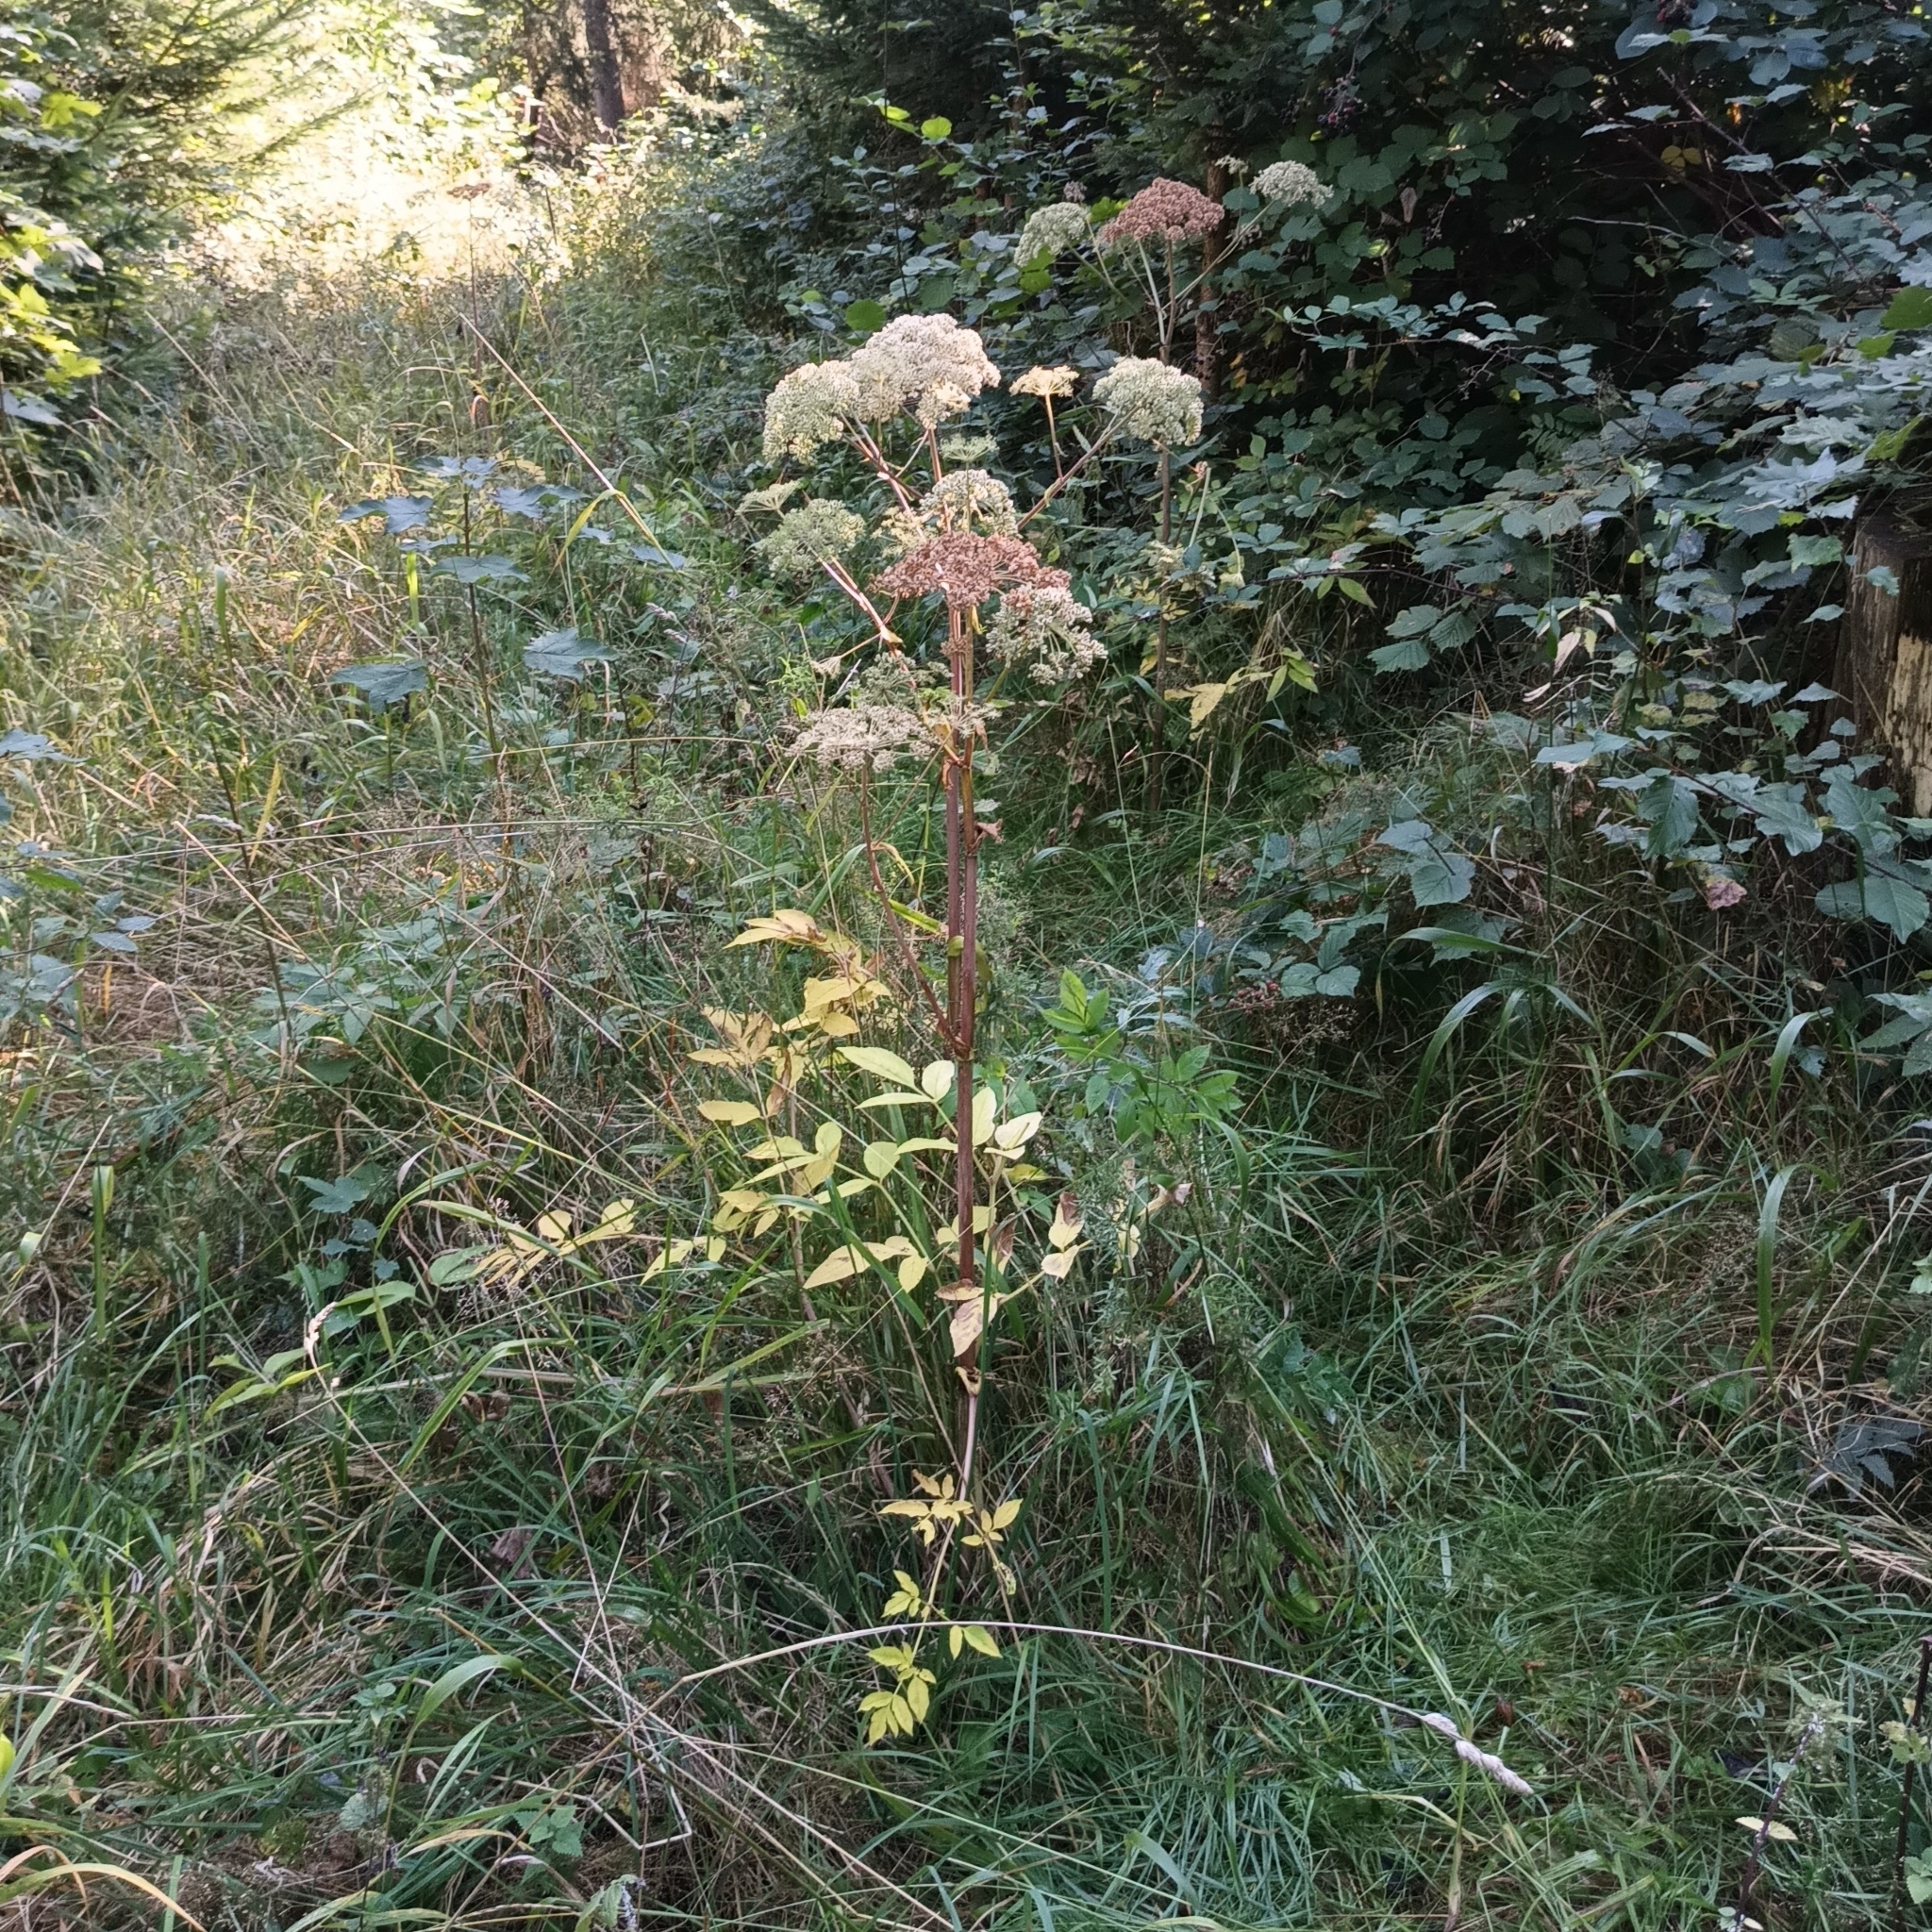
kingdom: Plantae
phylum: Tracheophyta
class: Magnoliopsida
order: Apiales
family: Apiaceae
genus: Angelica
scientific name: Angelica sylvestris
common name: Wild angelica
